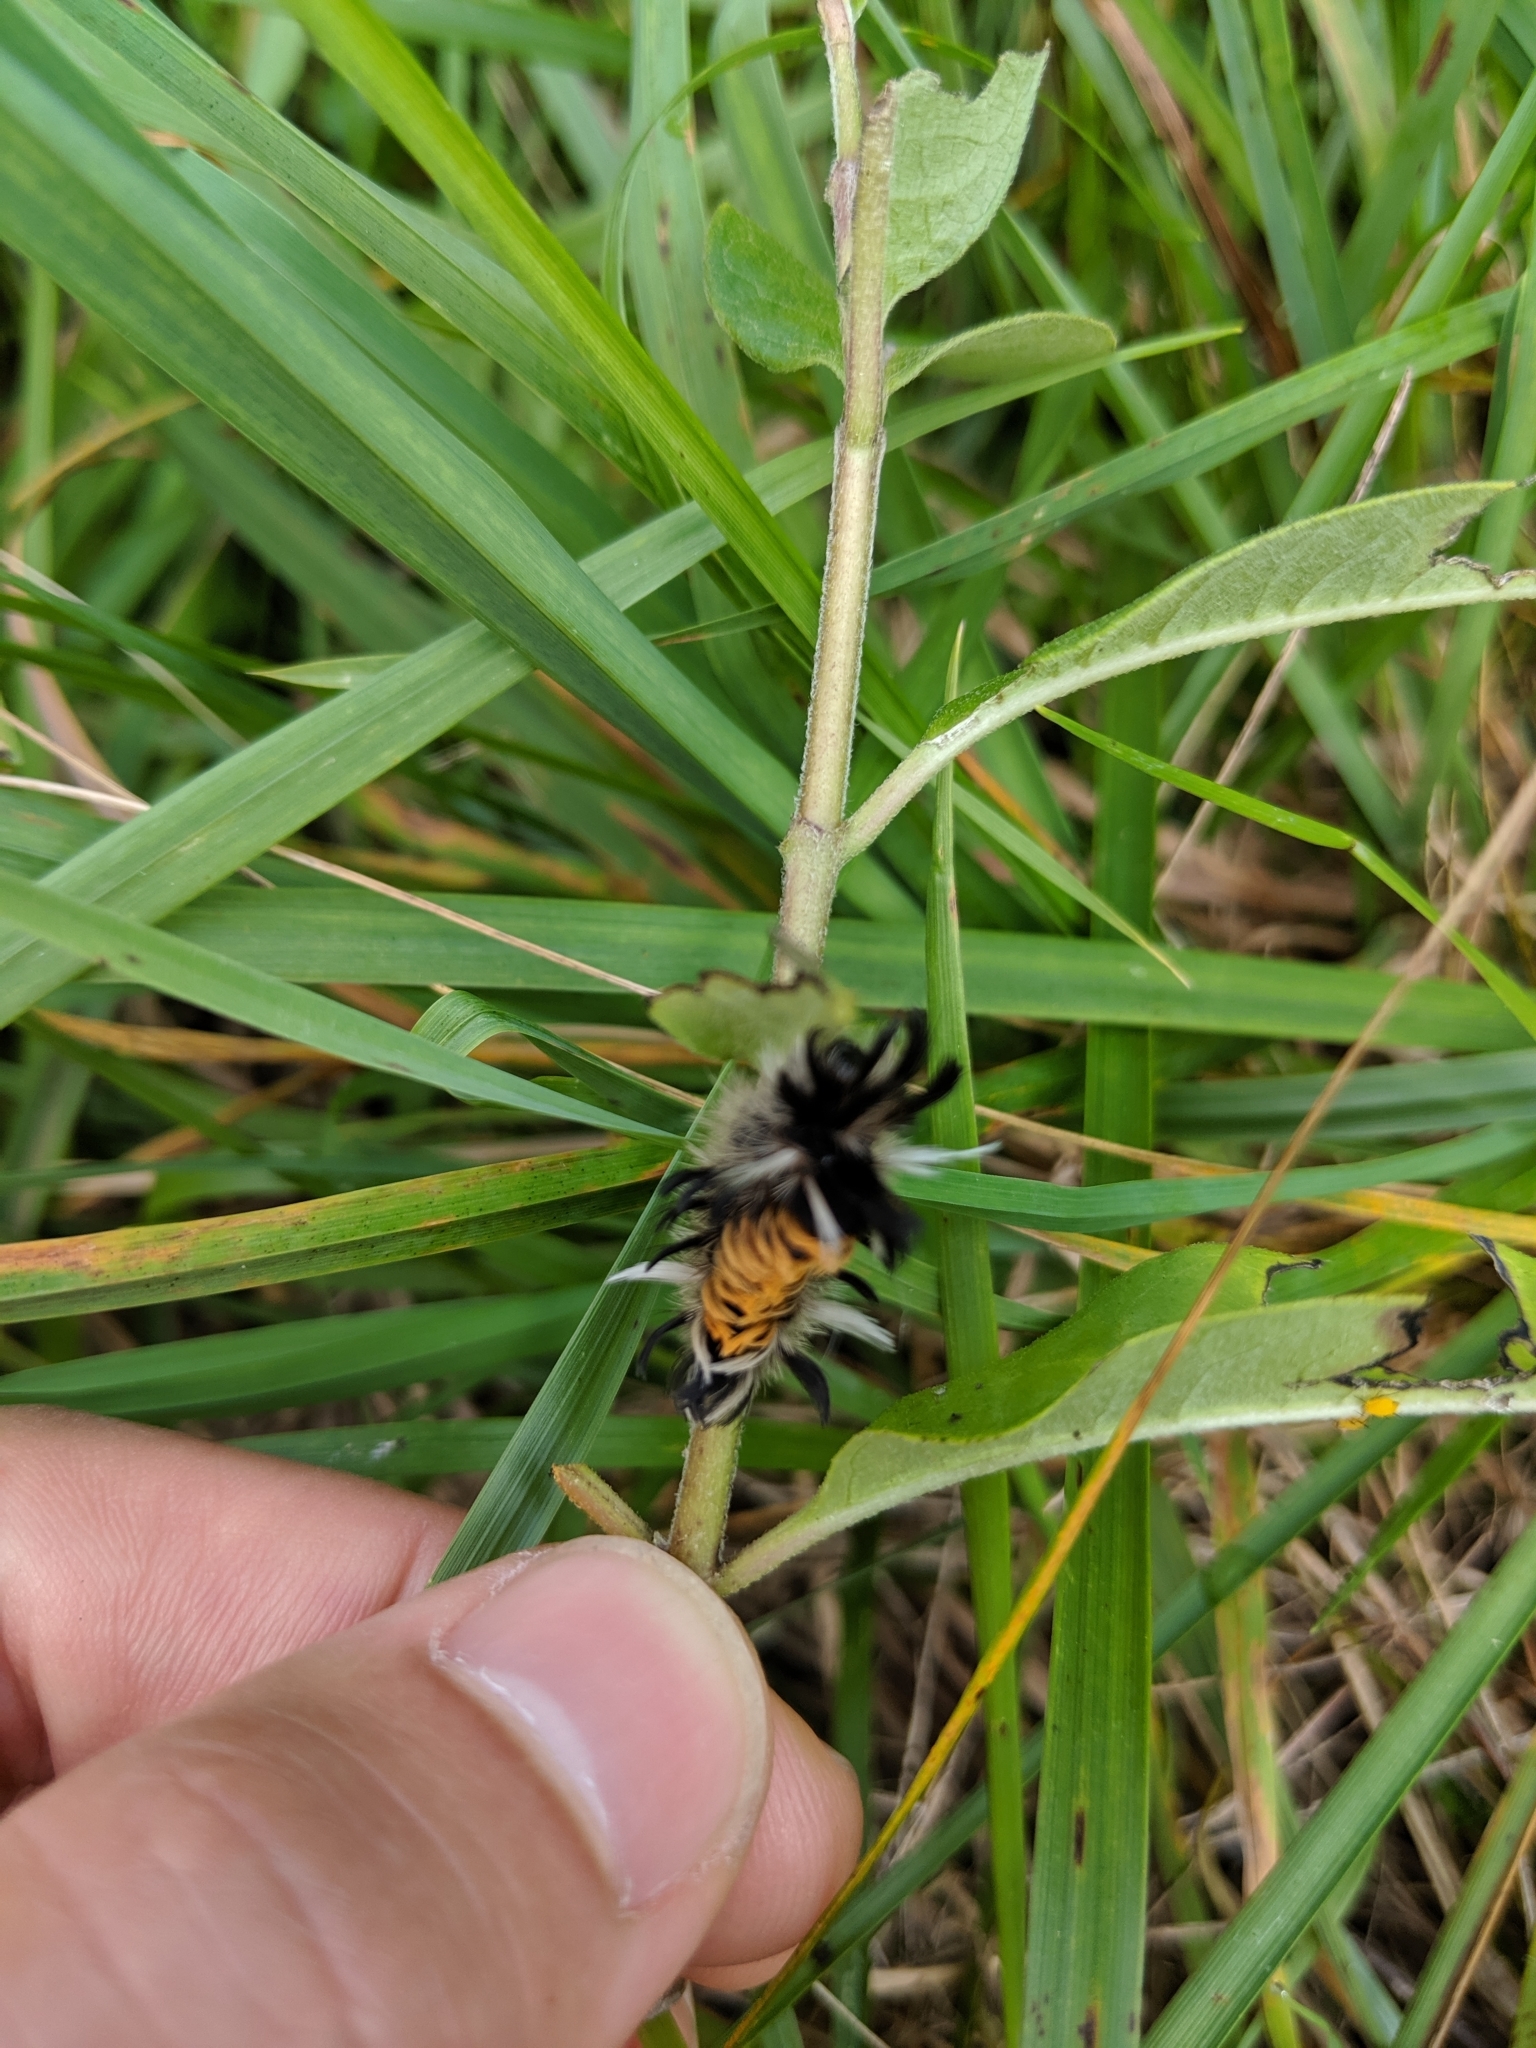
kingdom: Animalia
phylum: Arthropoda
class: Insecta
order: Lepidoptera
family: Erebidae
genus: Euchaetes
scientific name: Euchaetes egle
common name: Milkweed tussock moth
